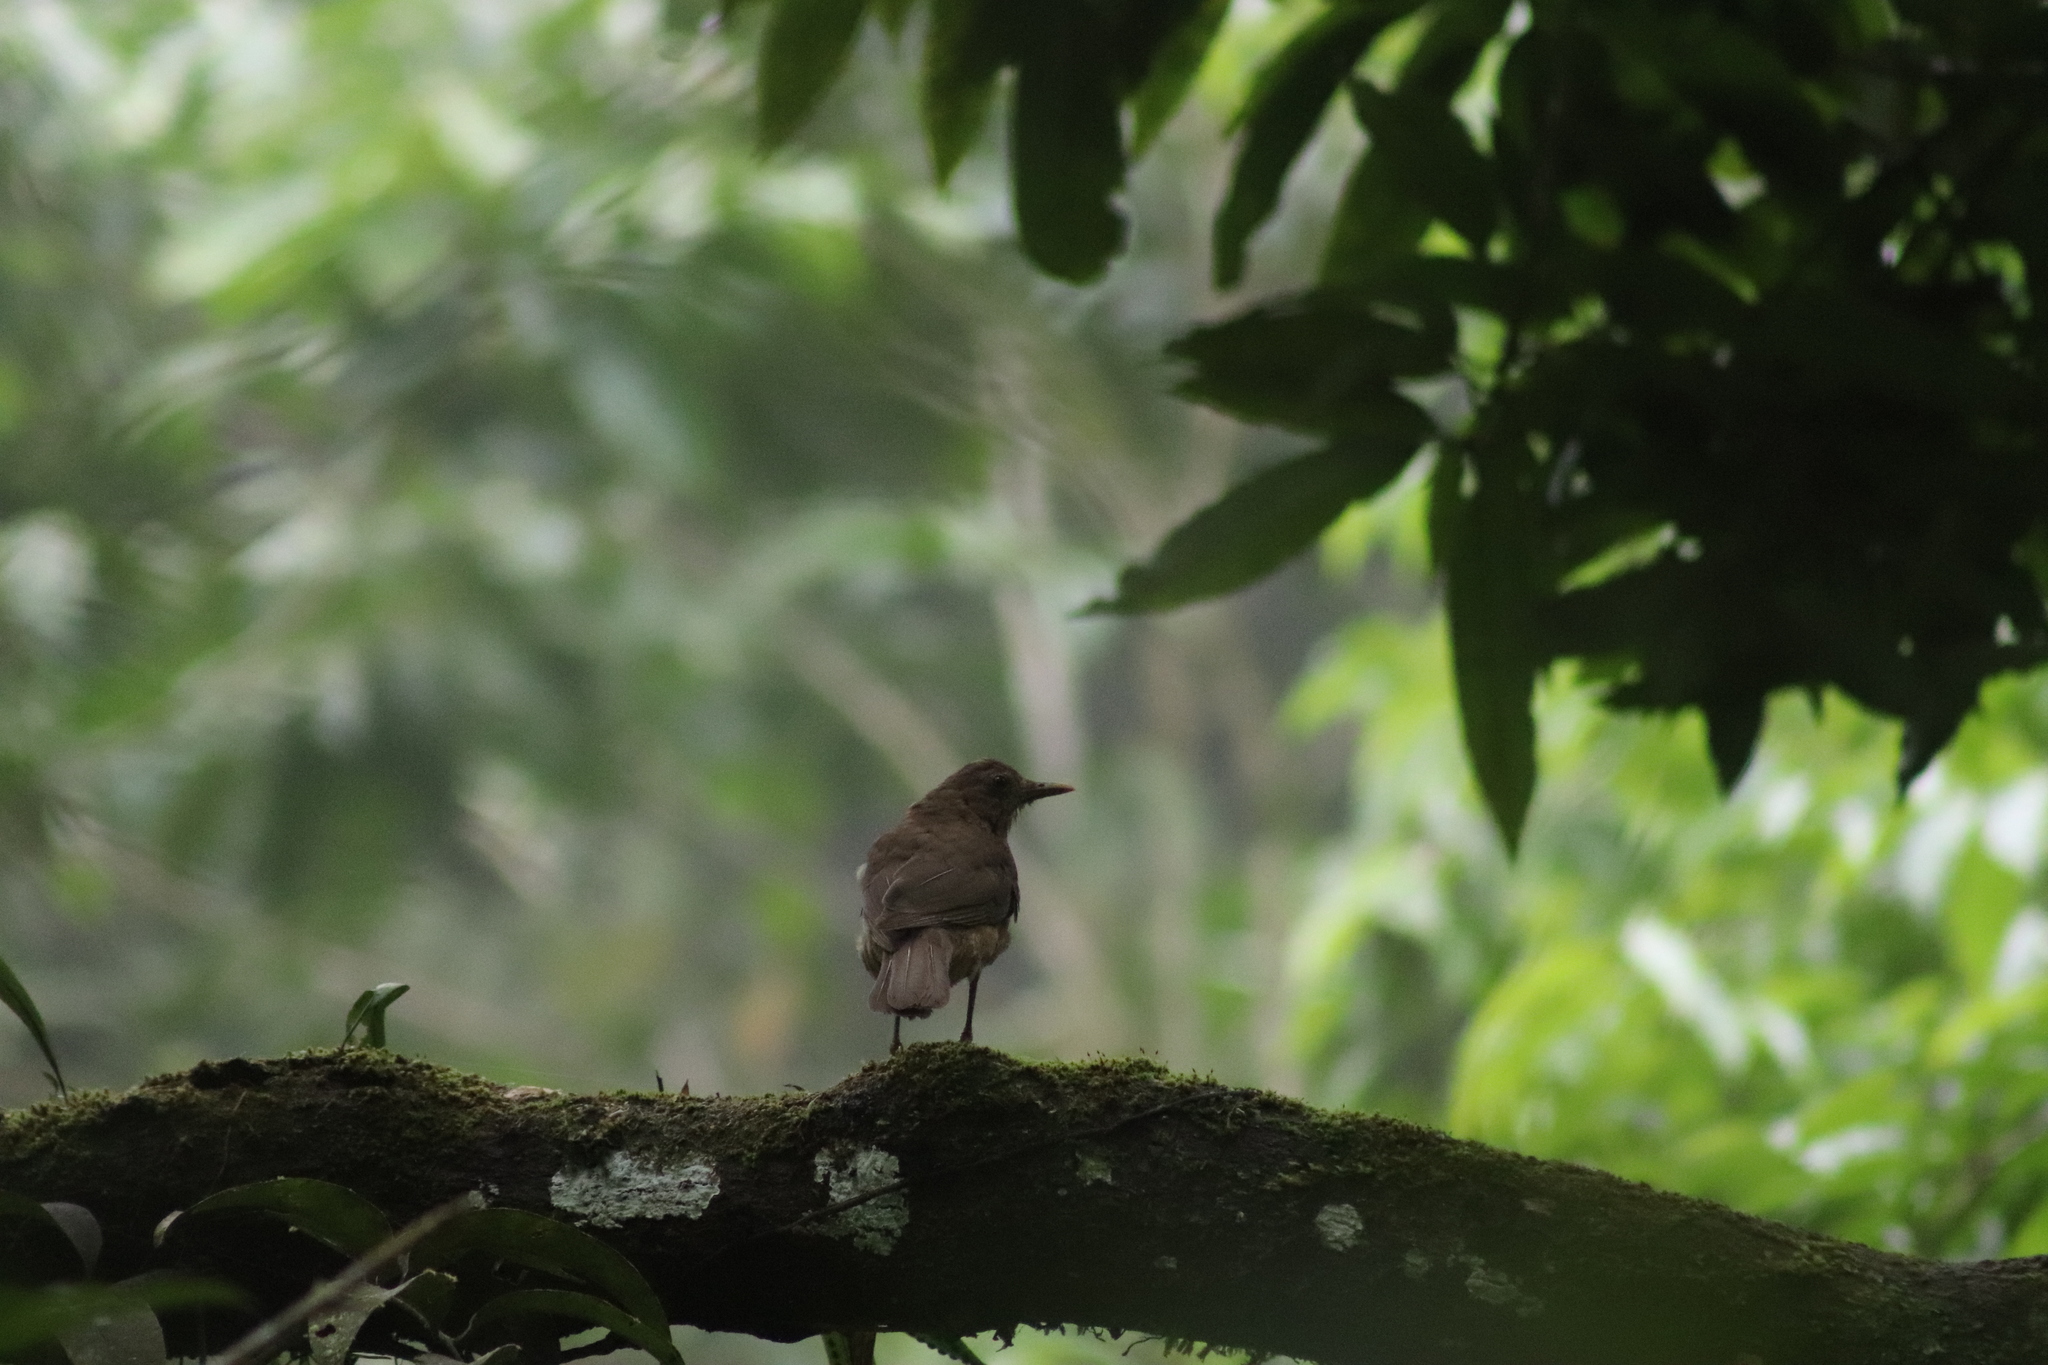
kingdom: Animalia
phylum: Chordata
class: Aves
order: Passeriformes
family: Turdidae
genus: Turdus
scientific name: Turdus grayi
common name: Clay-colored thrush
